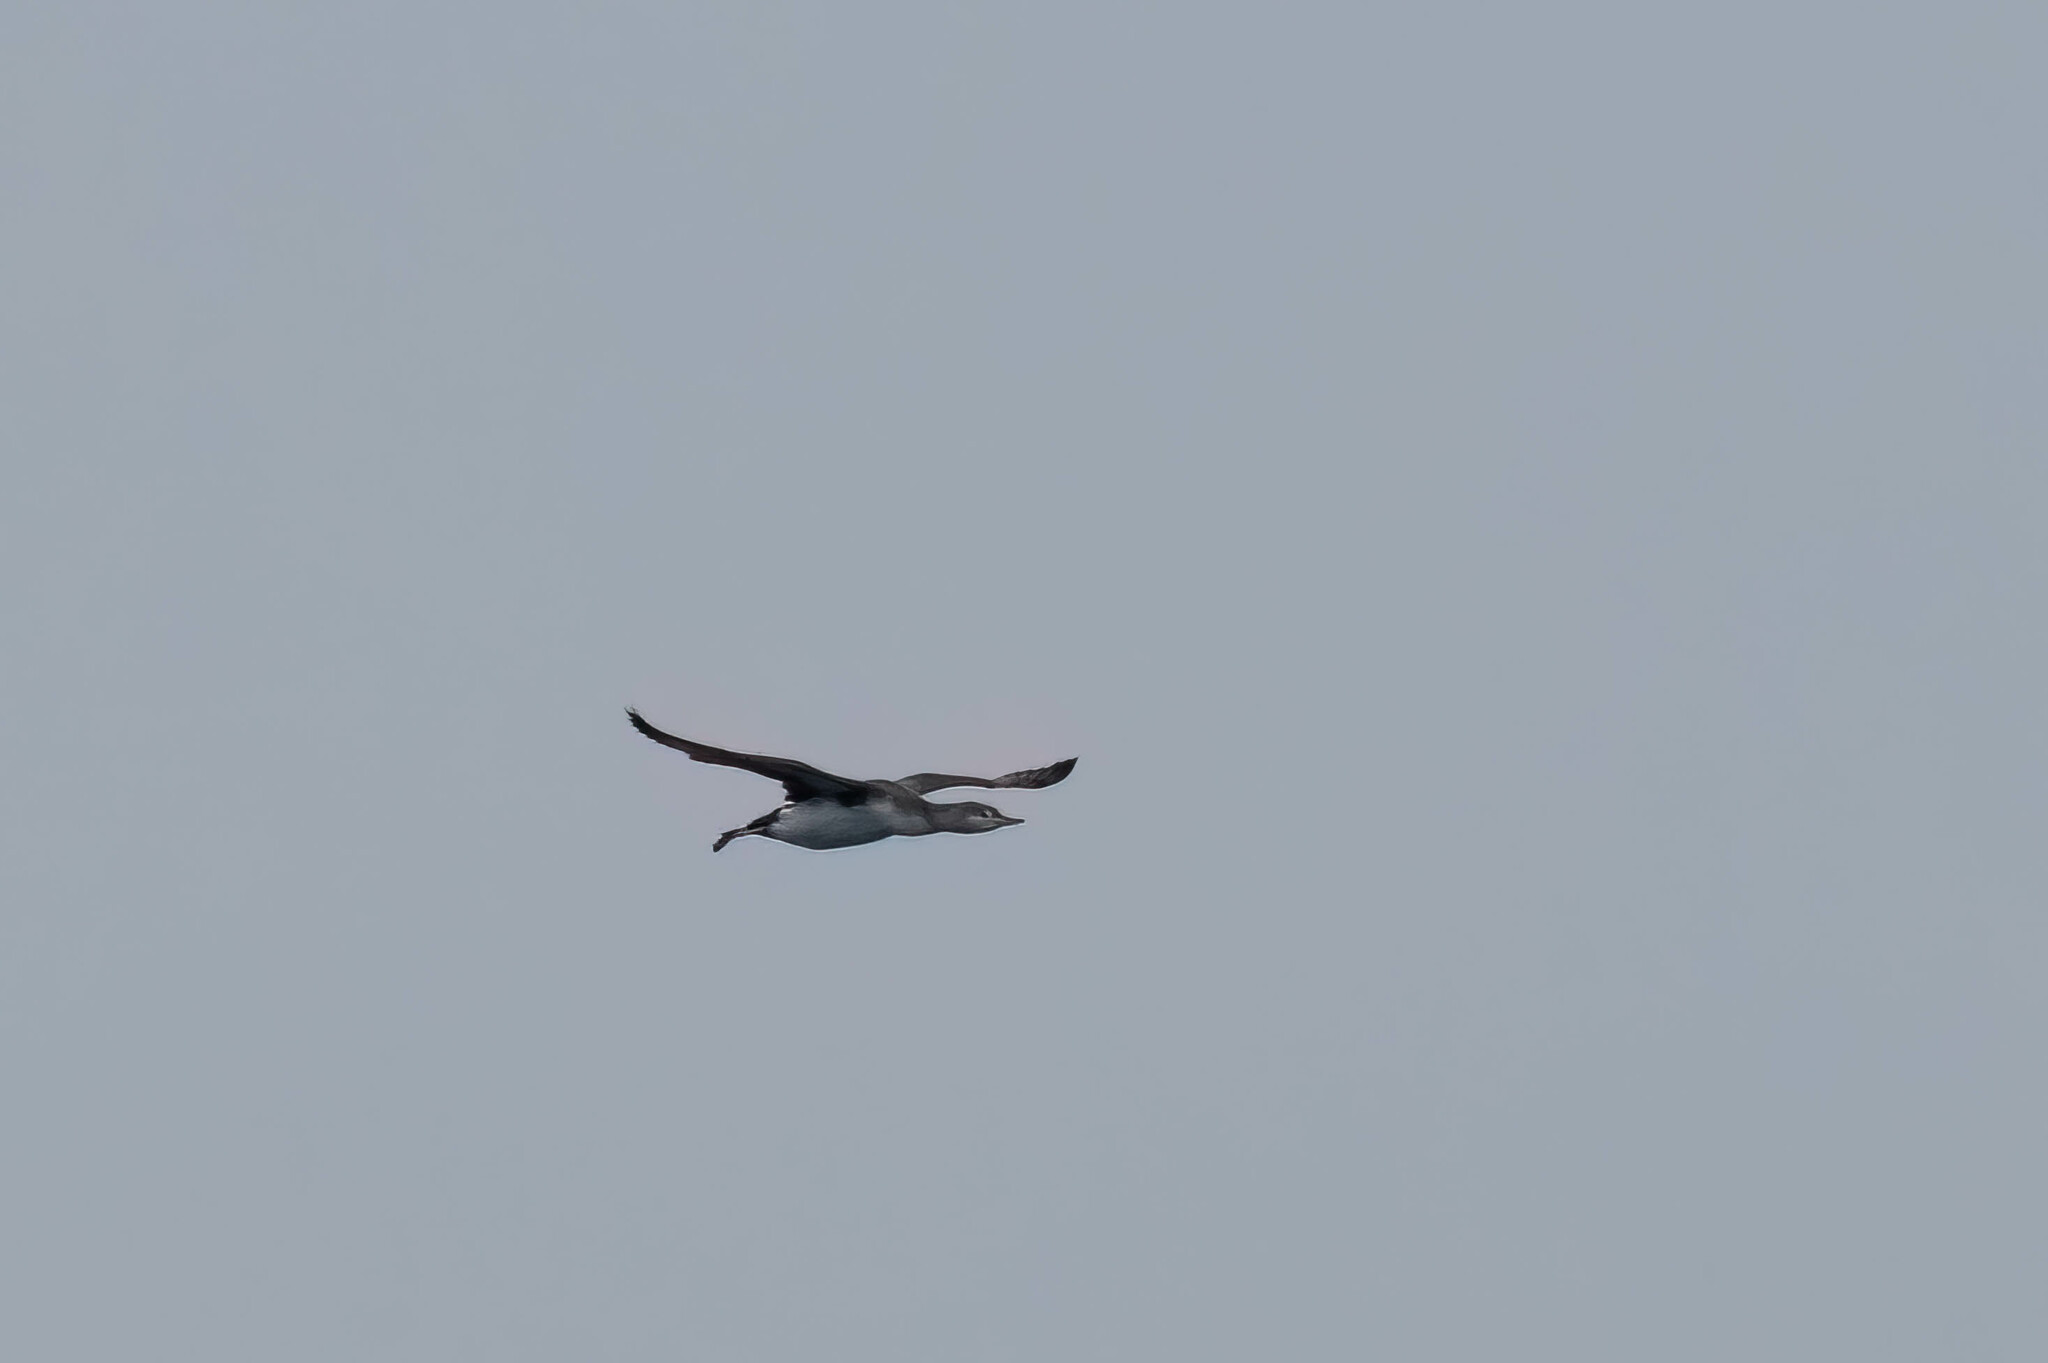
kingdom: Animalia
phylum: Chordata
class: Aves
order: Gaviiformes
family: Gaviidae
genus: Gavia
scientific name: Gavia stellata
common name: Red-throated loon
